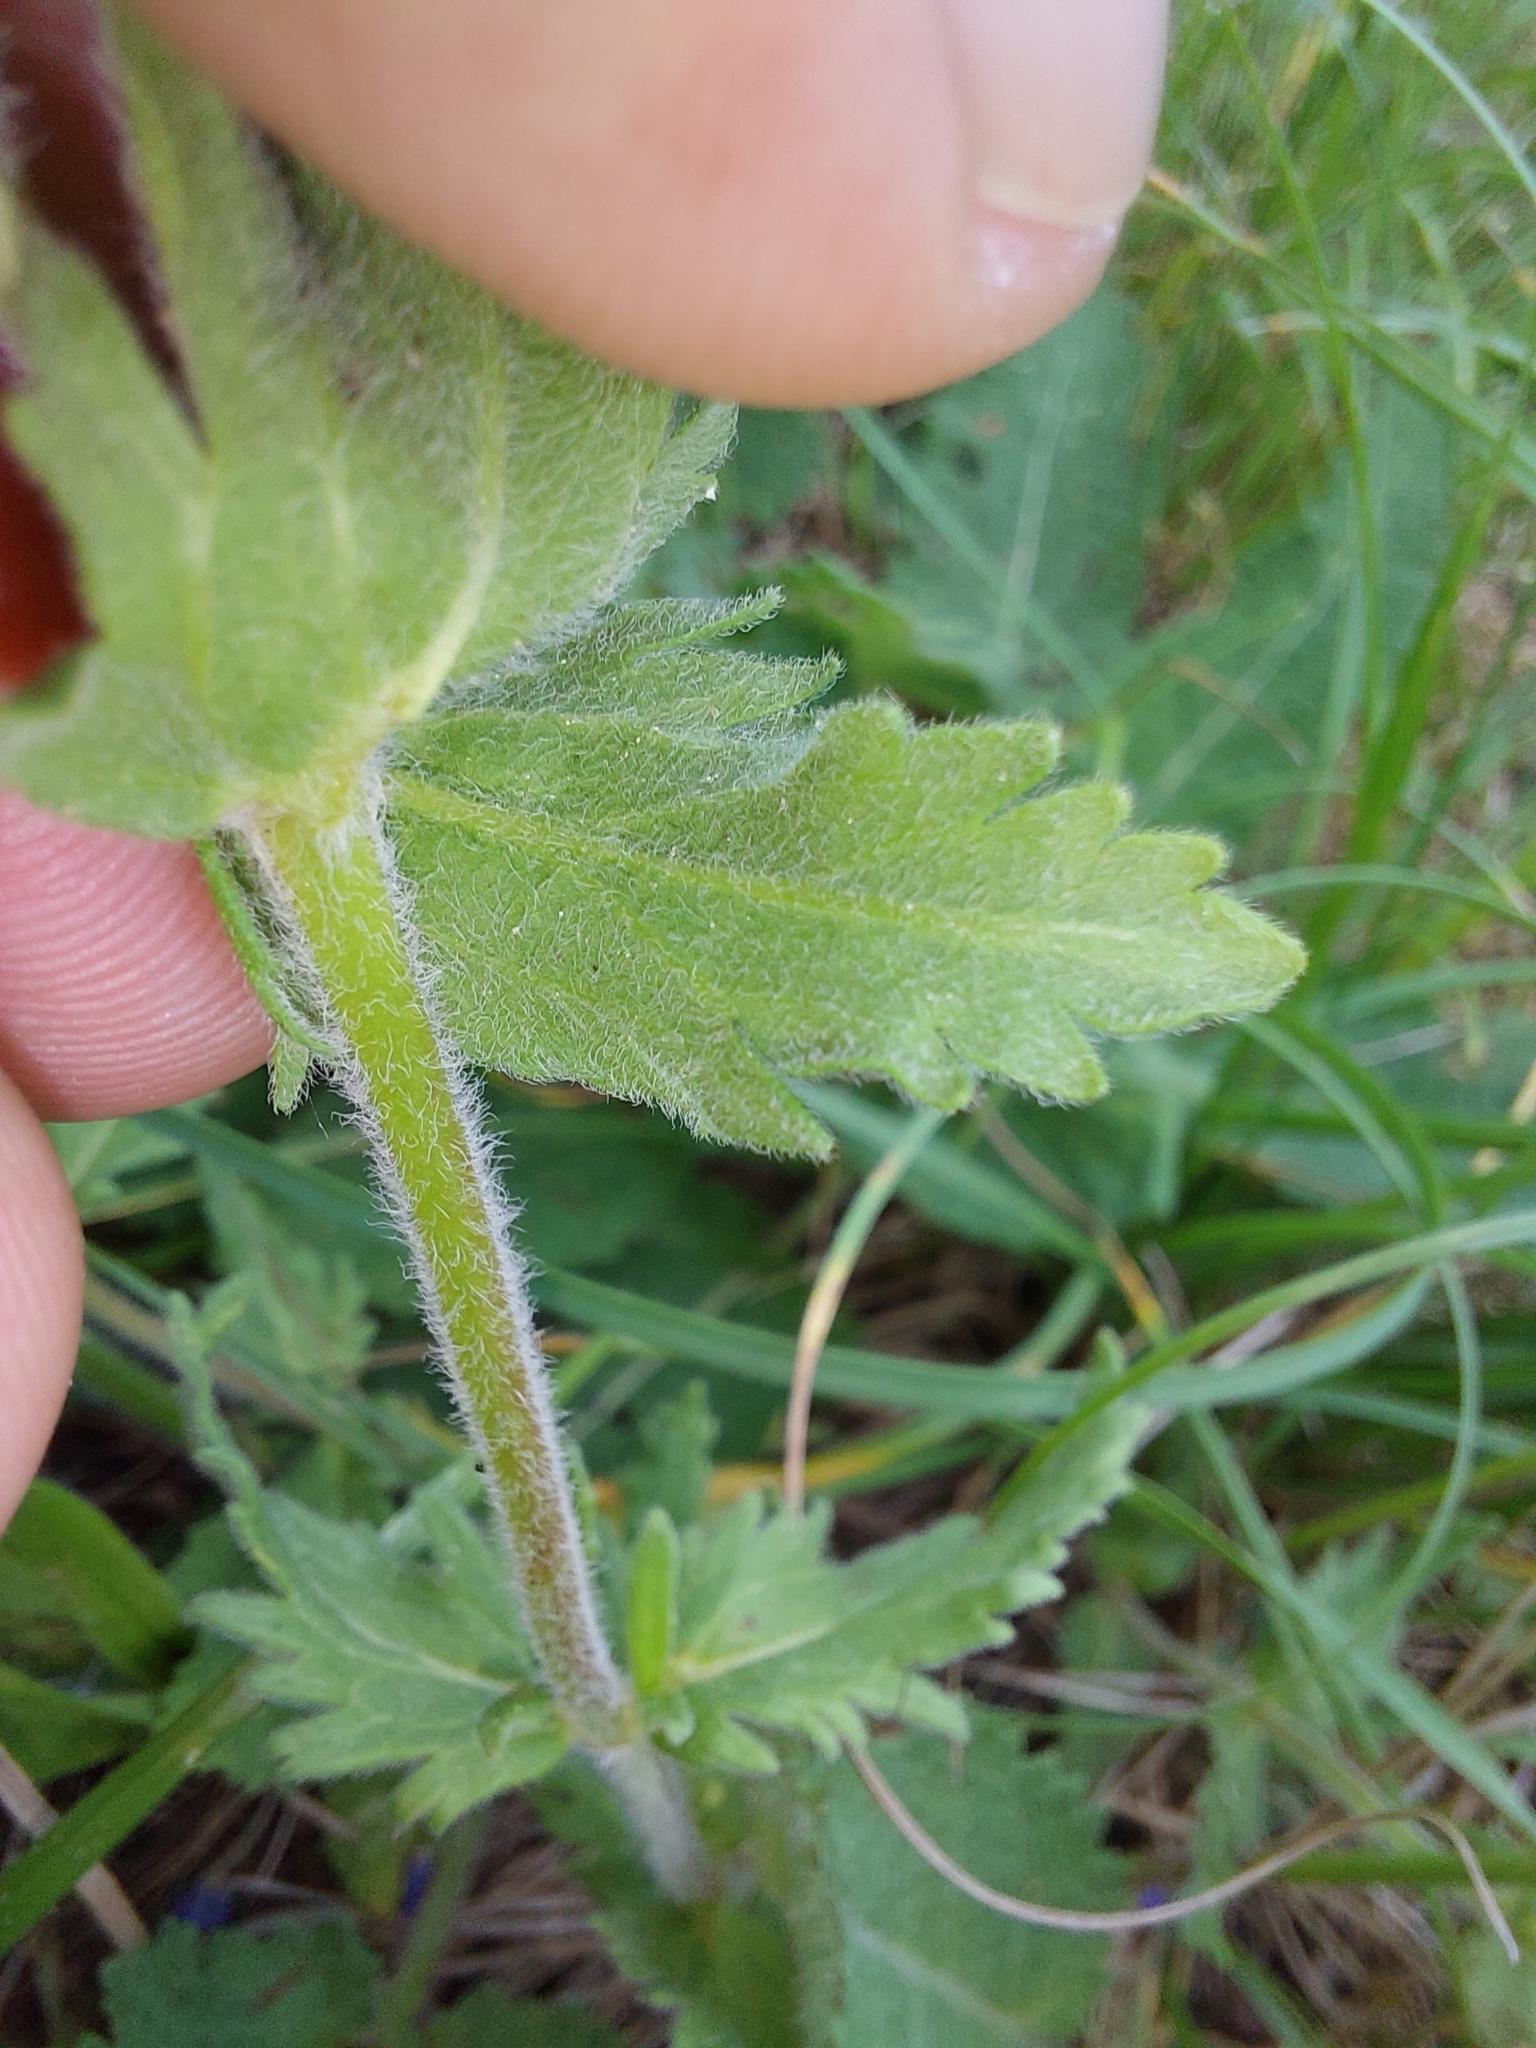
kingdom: Plantae
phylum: Tracheophyta
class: Magnoliopsida
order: Lamiales
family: Plantaginaceae
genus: Veronica
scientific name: Veronica teucrium
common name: Large speedwell
